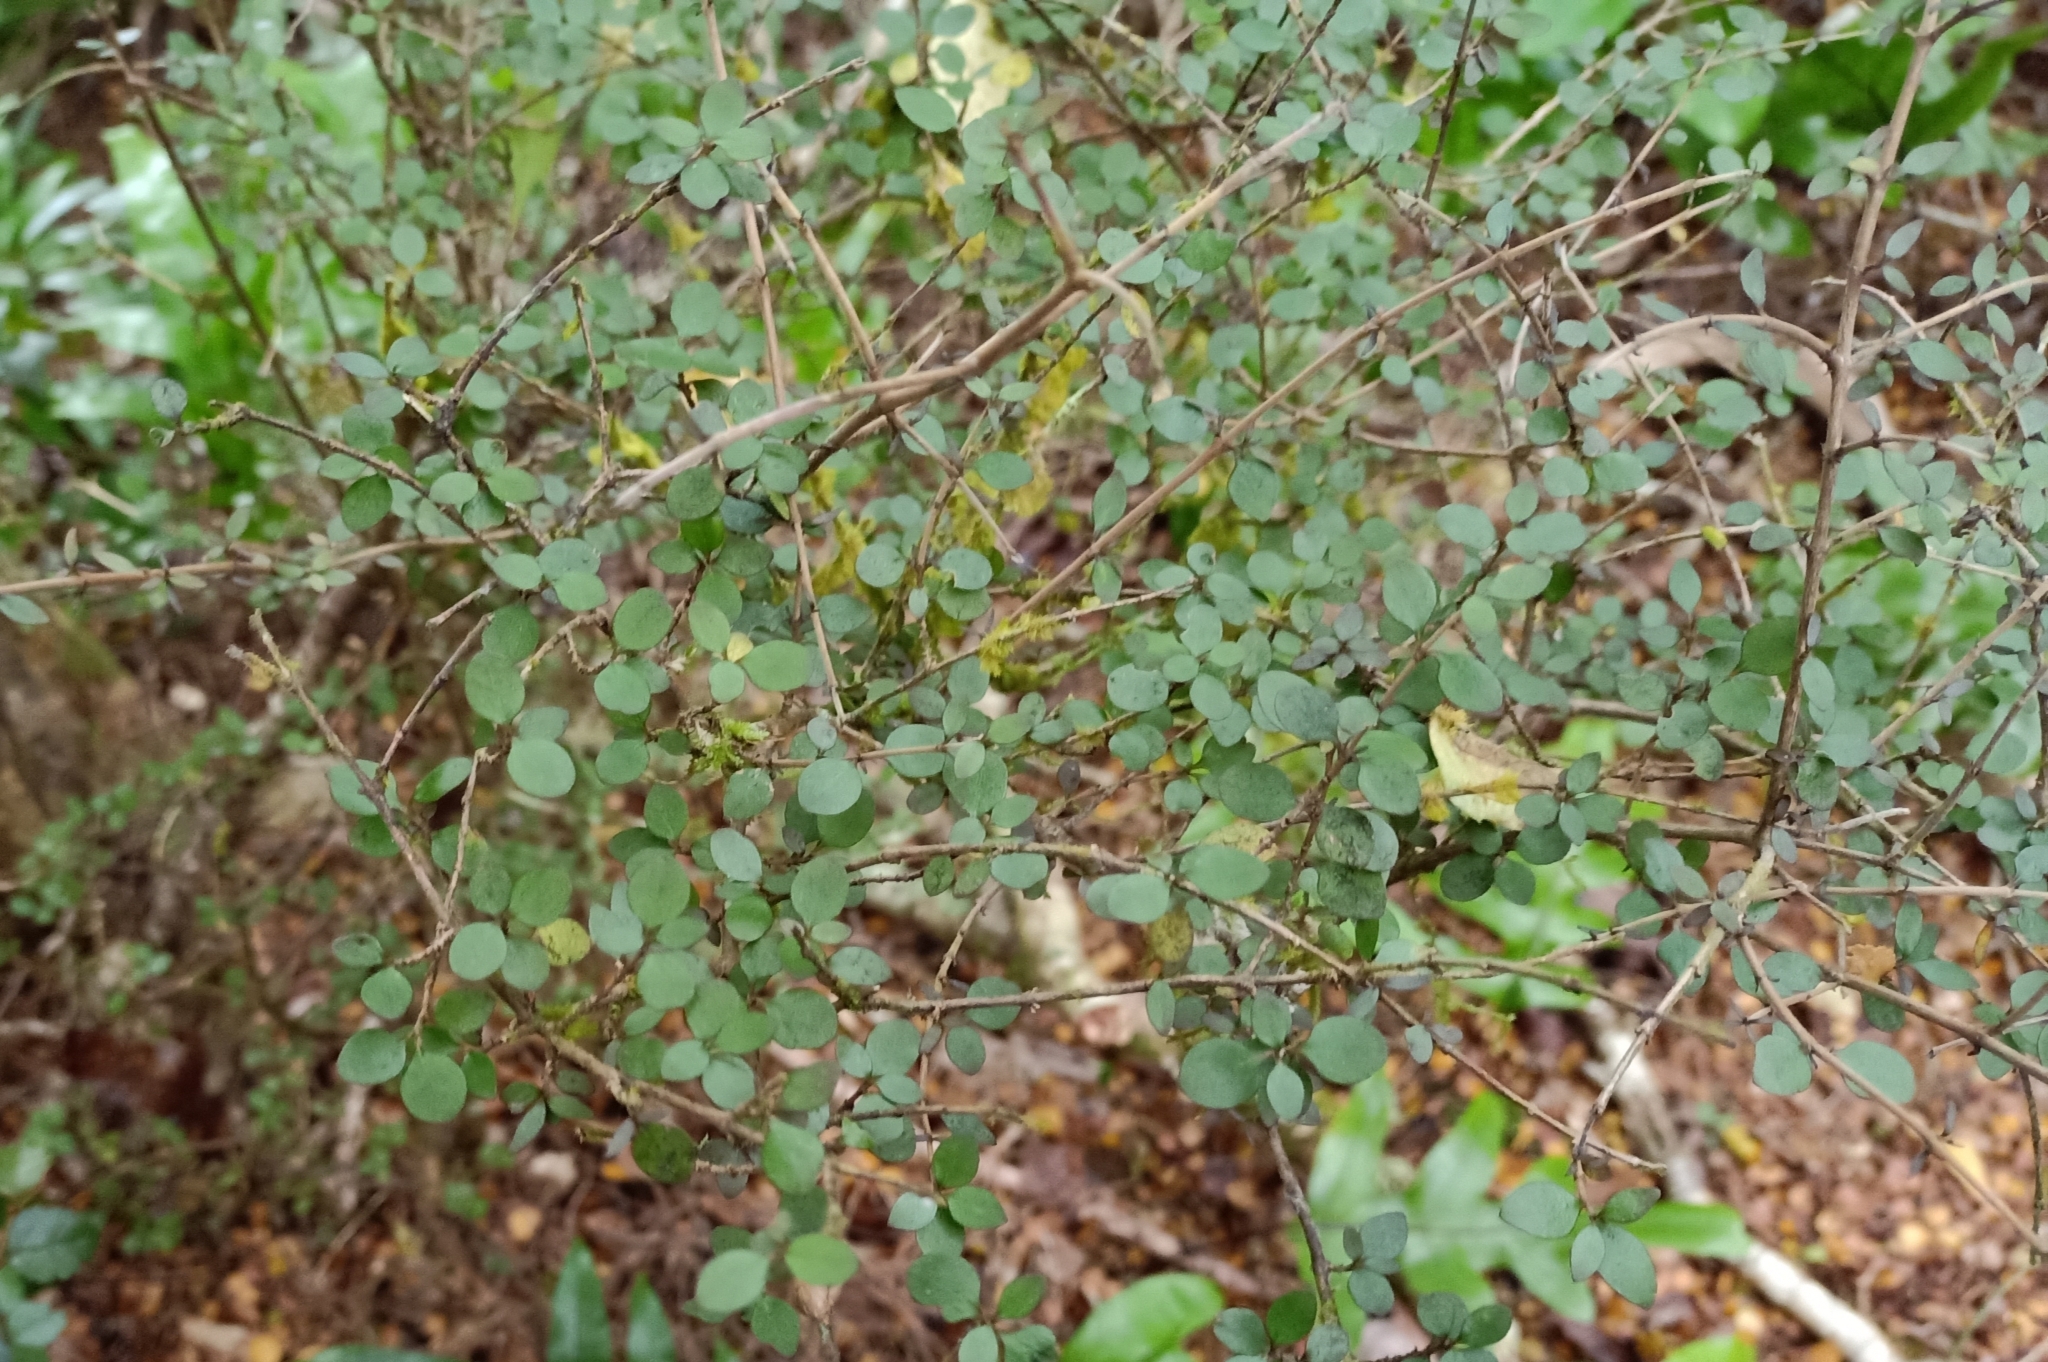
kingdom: Plantae
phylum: Tracheophyta
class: Magnoliopsida
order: Gentianales
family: Rubiaceae
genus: Coprosma
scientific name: Coprosma rhamnoides
